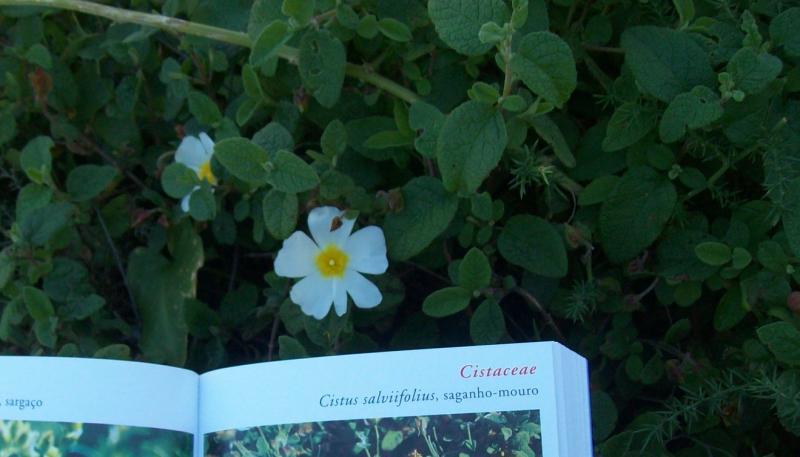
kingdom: Plantae
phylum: Tracheophyta
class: Magnoliopsida
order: Malvales
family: Cistaceae
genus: Cistus
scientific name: Cistus salviifolius
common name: Salvia cistus
